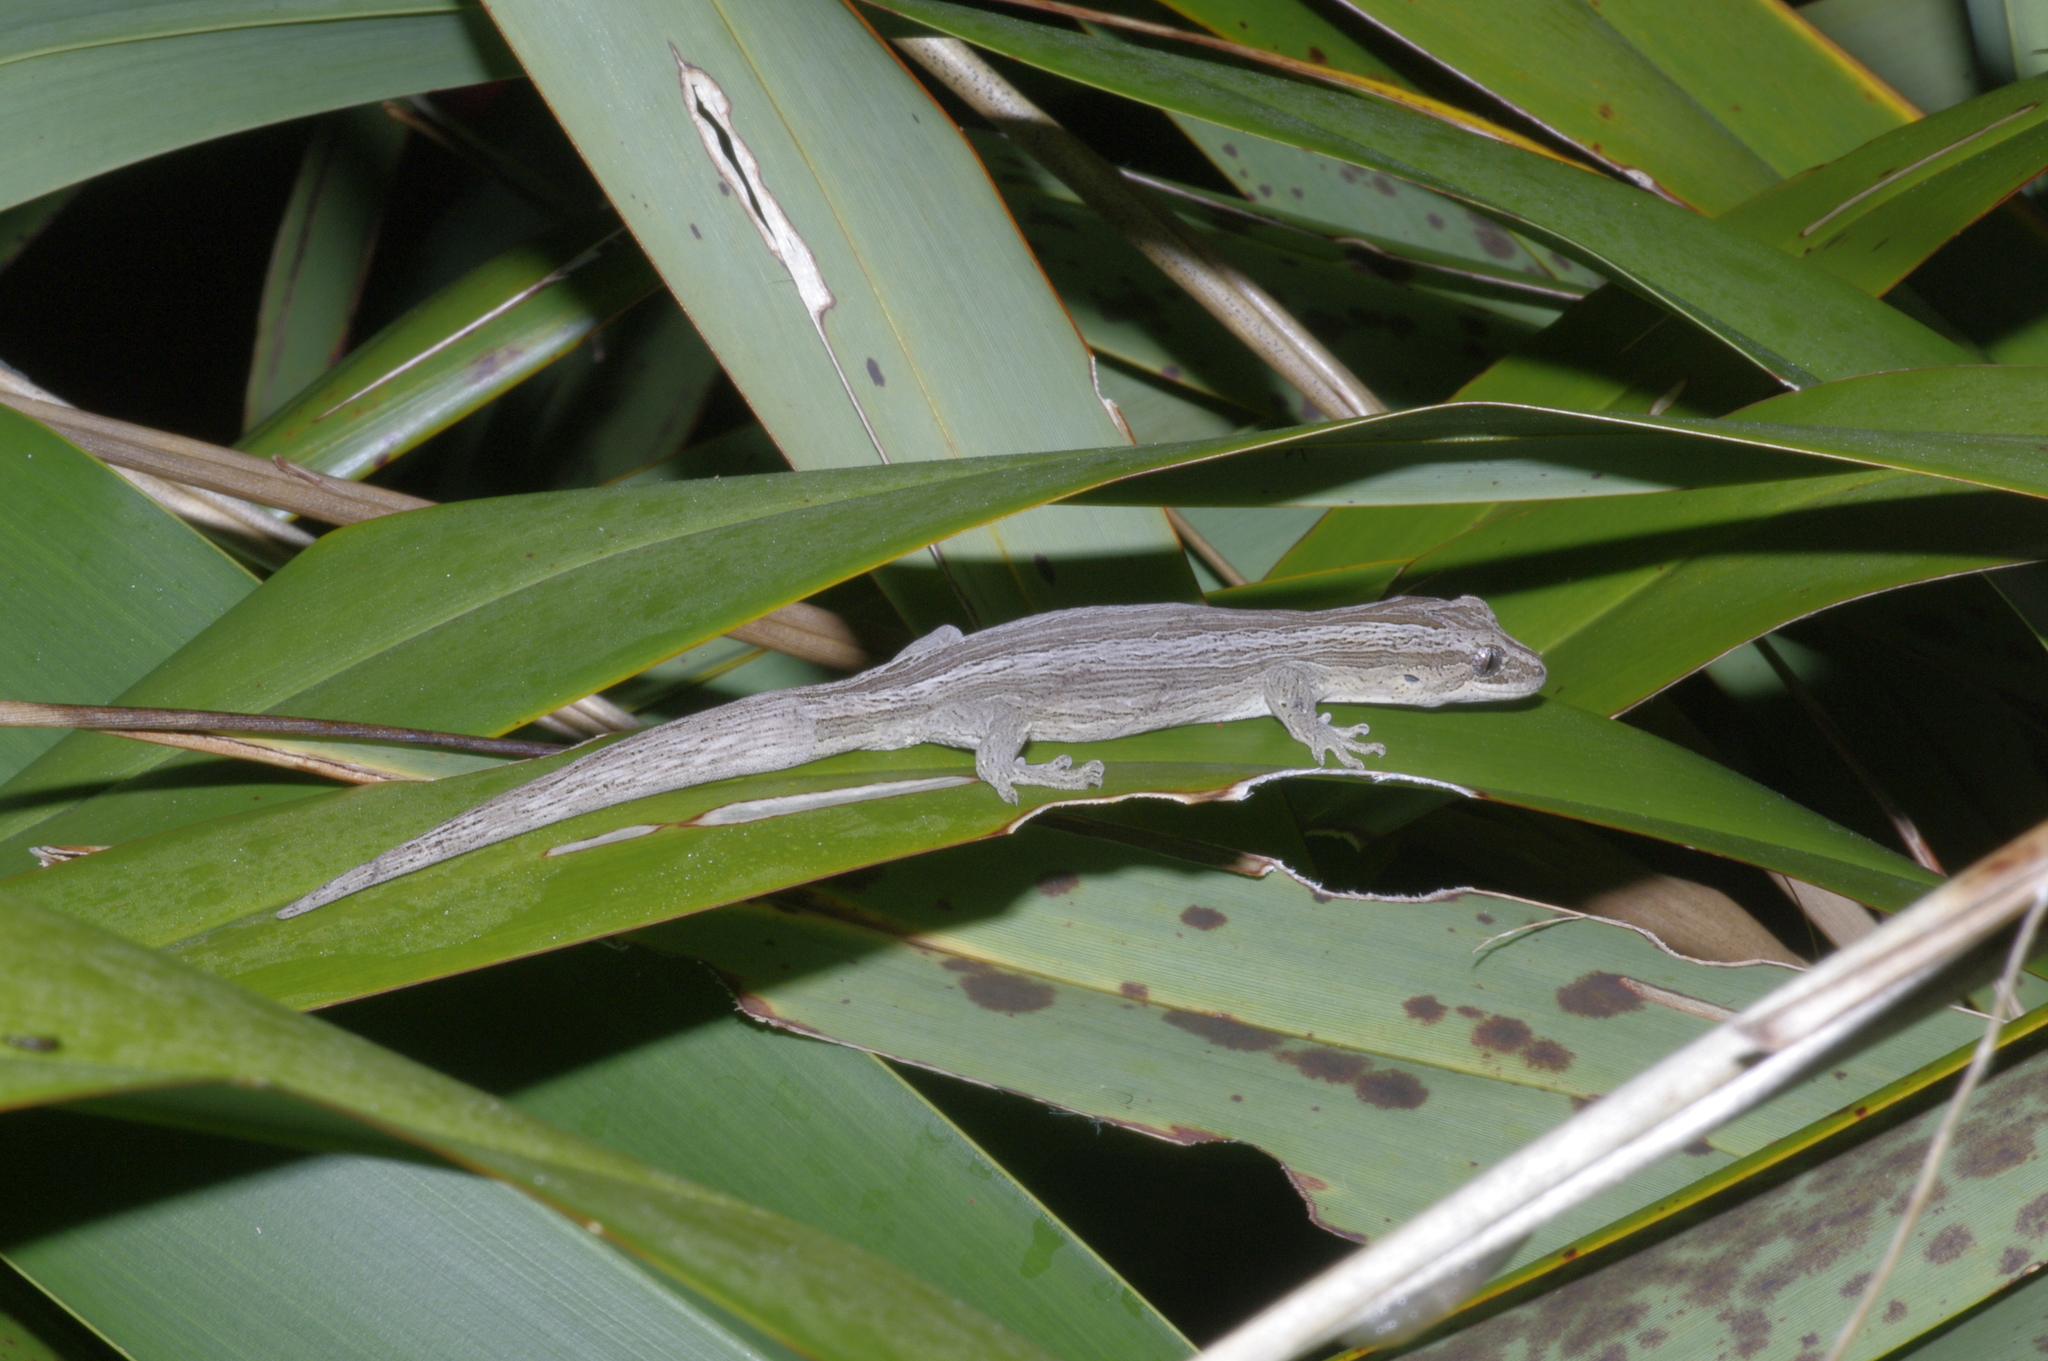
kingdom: Animalia
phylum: Chordata
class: Squamata
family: Diplodactylidae
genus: Toropuku
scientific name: Toropuku stephensi
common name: Stephen’s sticky-toed gecko
